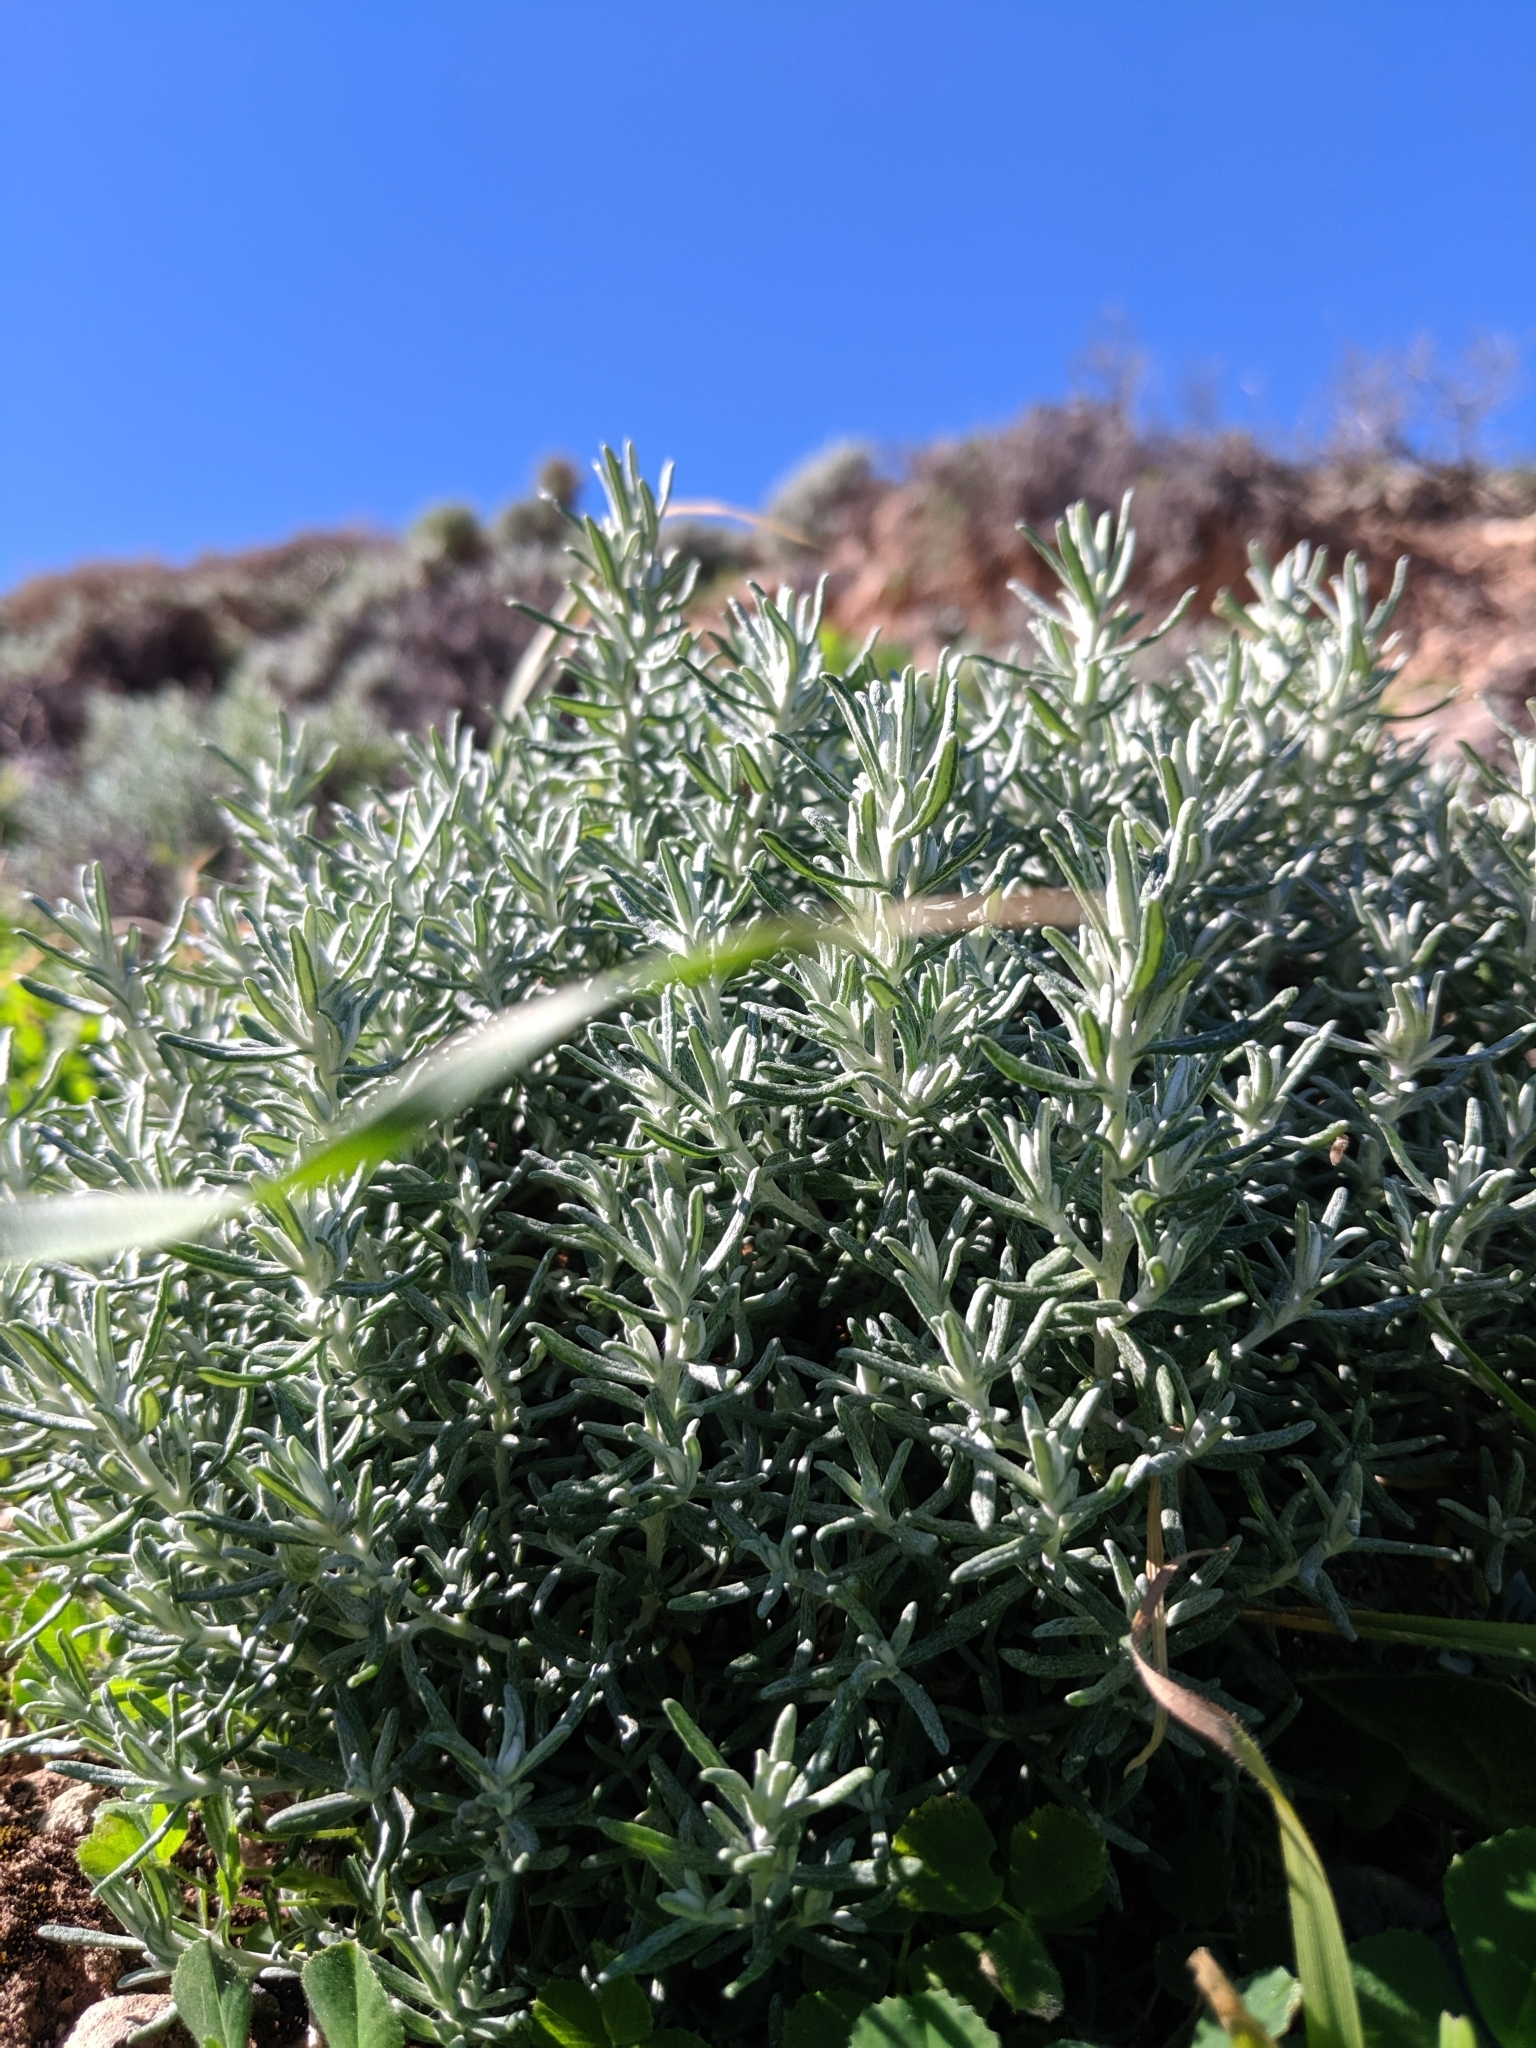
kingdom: Plantae
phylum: Tracheophyta
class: Magnoliopsida
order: Asterales
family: Asteraceae
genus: Olearia
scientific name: Olearia axillaris
